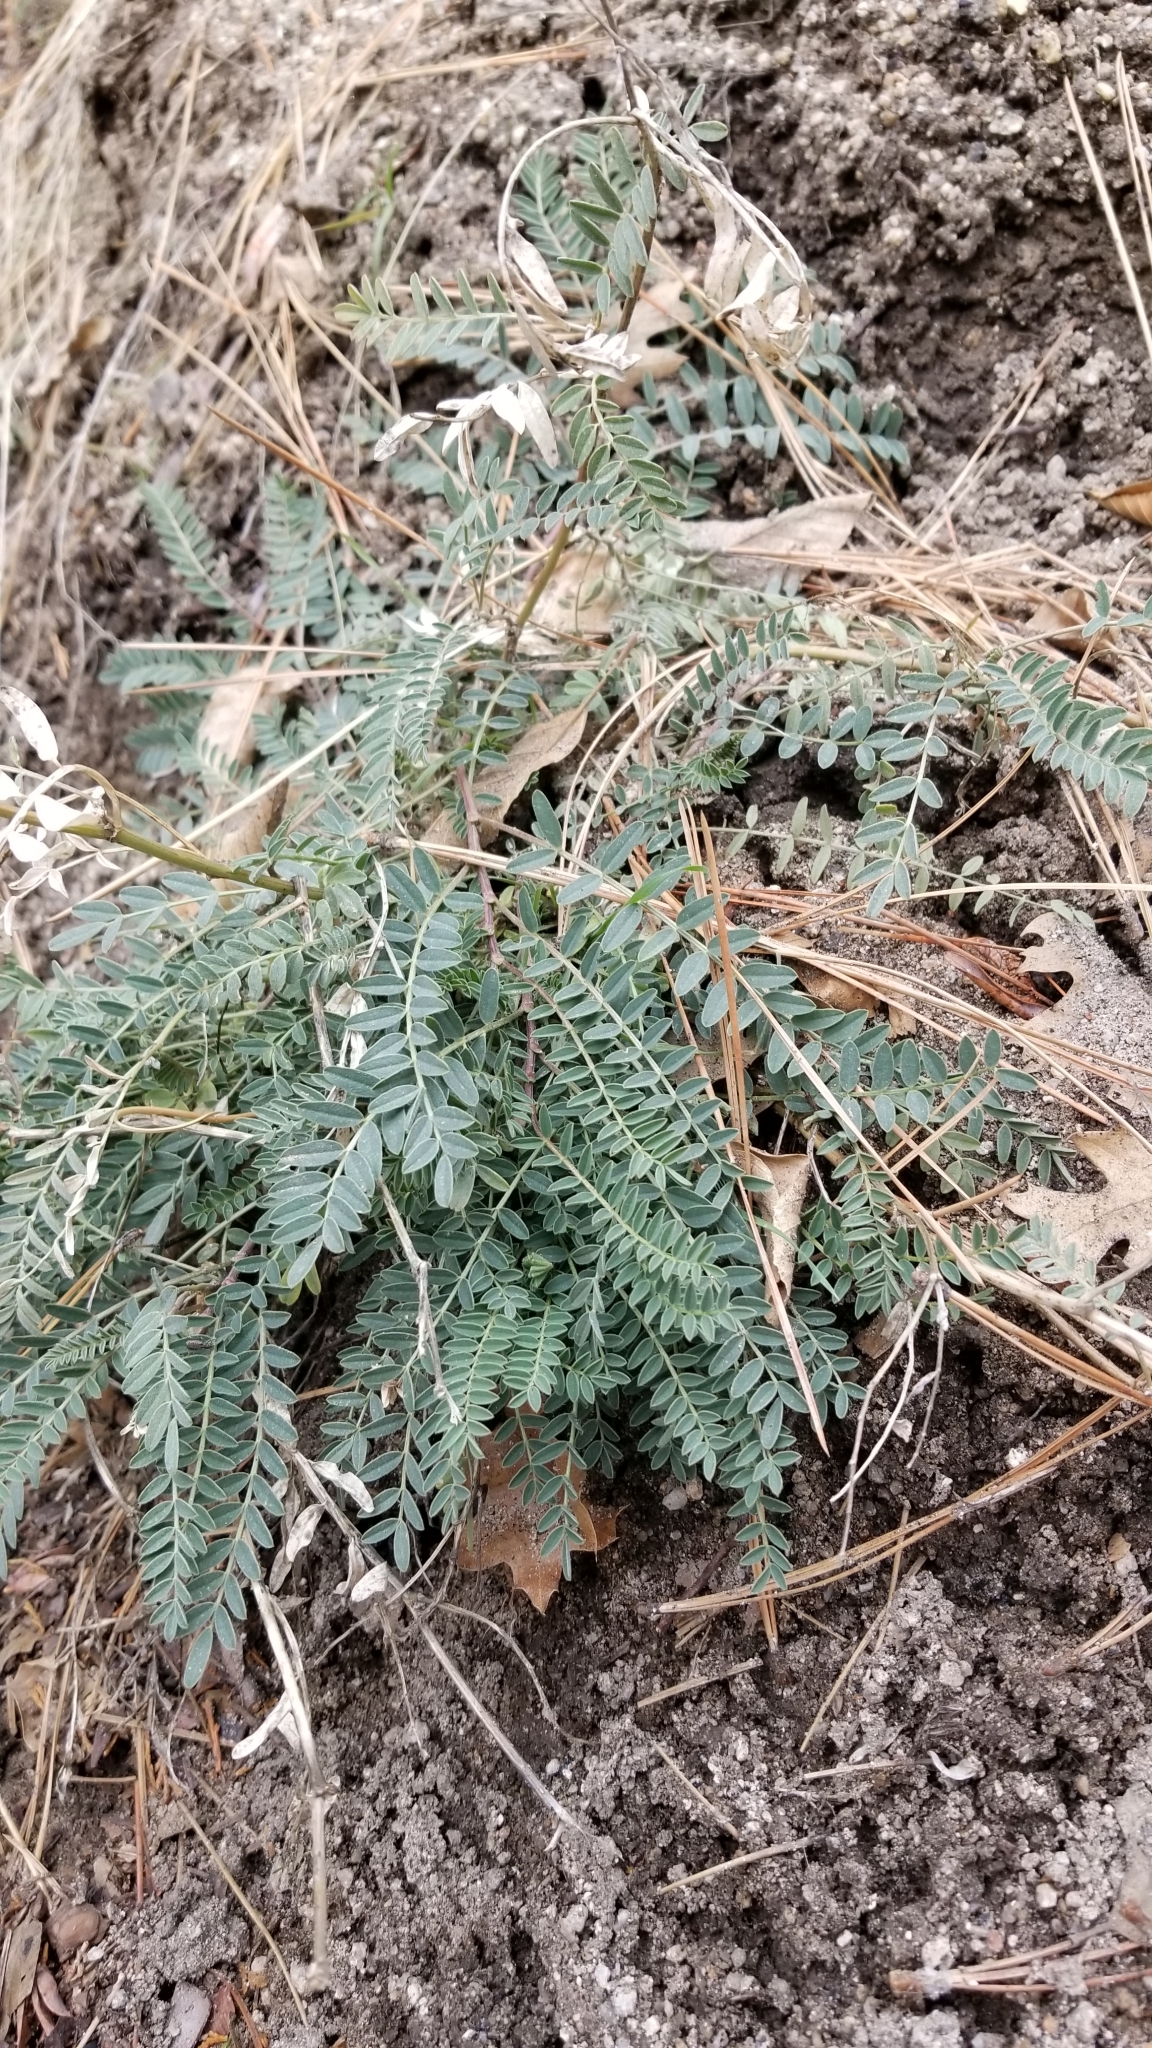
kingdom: Plantae
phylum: Tracheophyta
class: Magnoliopsida
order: Fabales
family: Fabaceae
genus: Astragalus
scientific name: Astragalus douglasii
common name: Jacumba milkvetch
